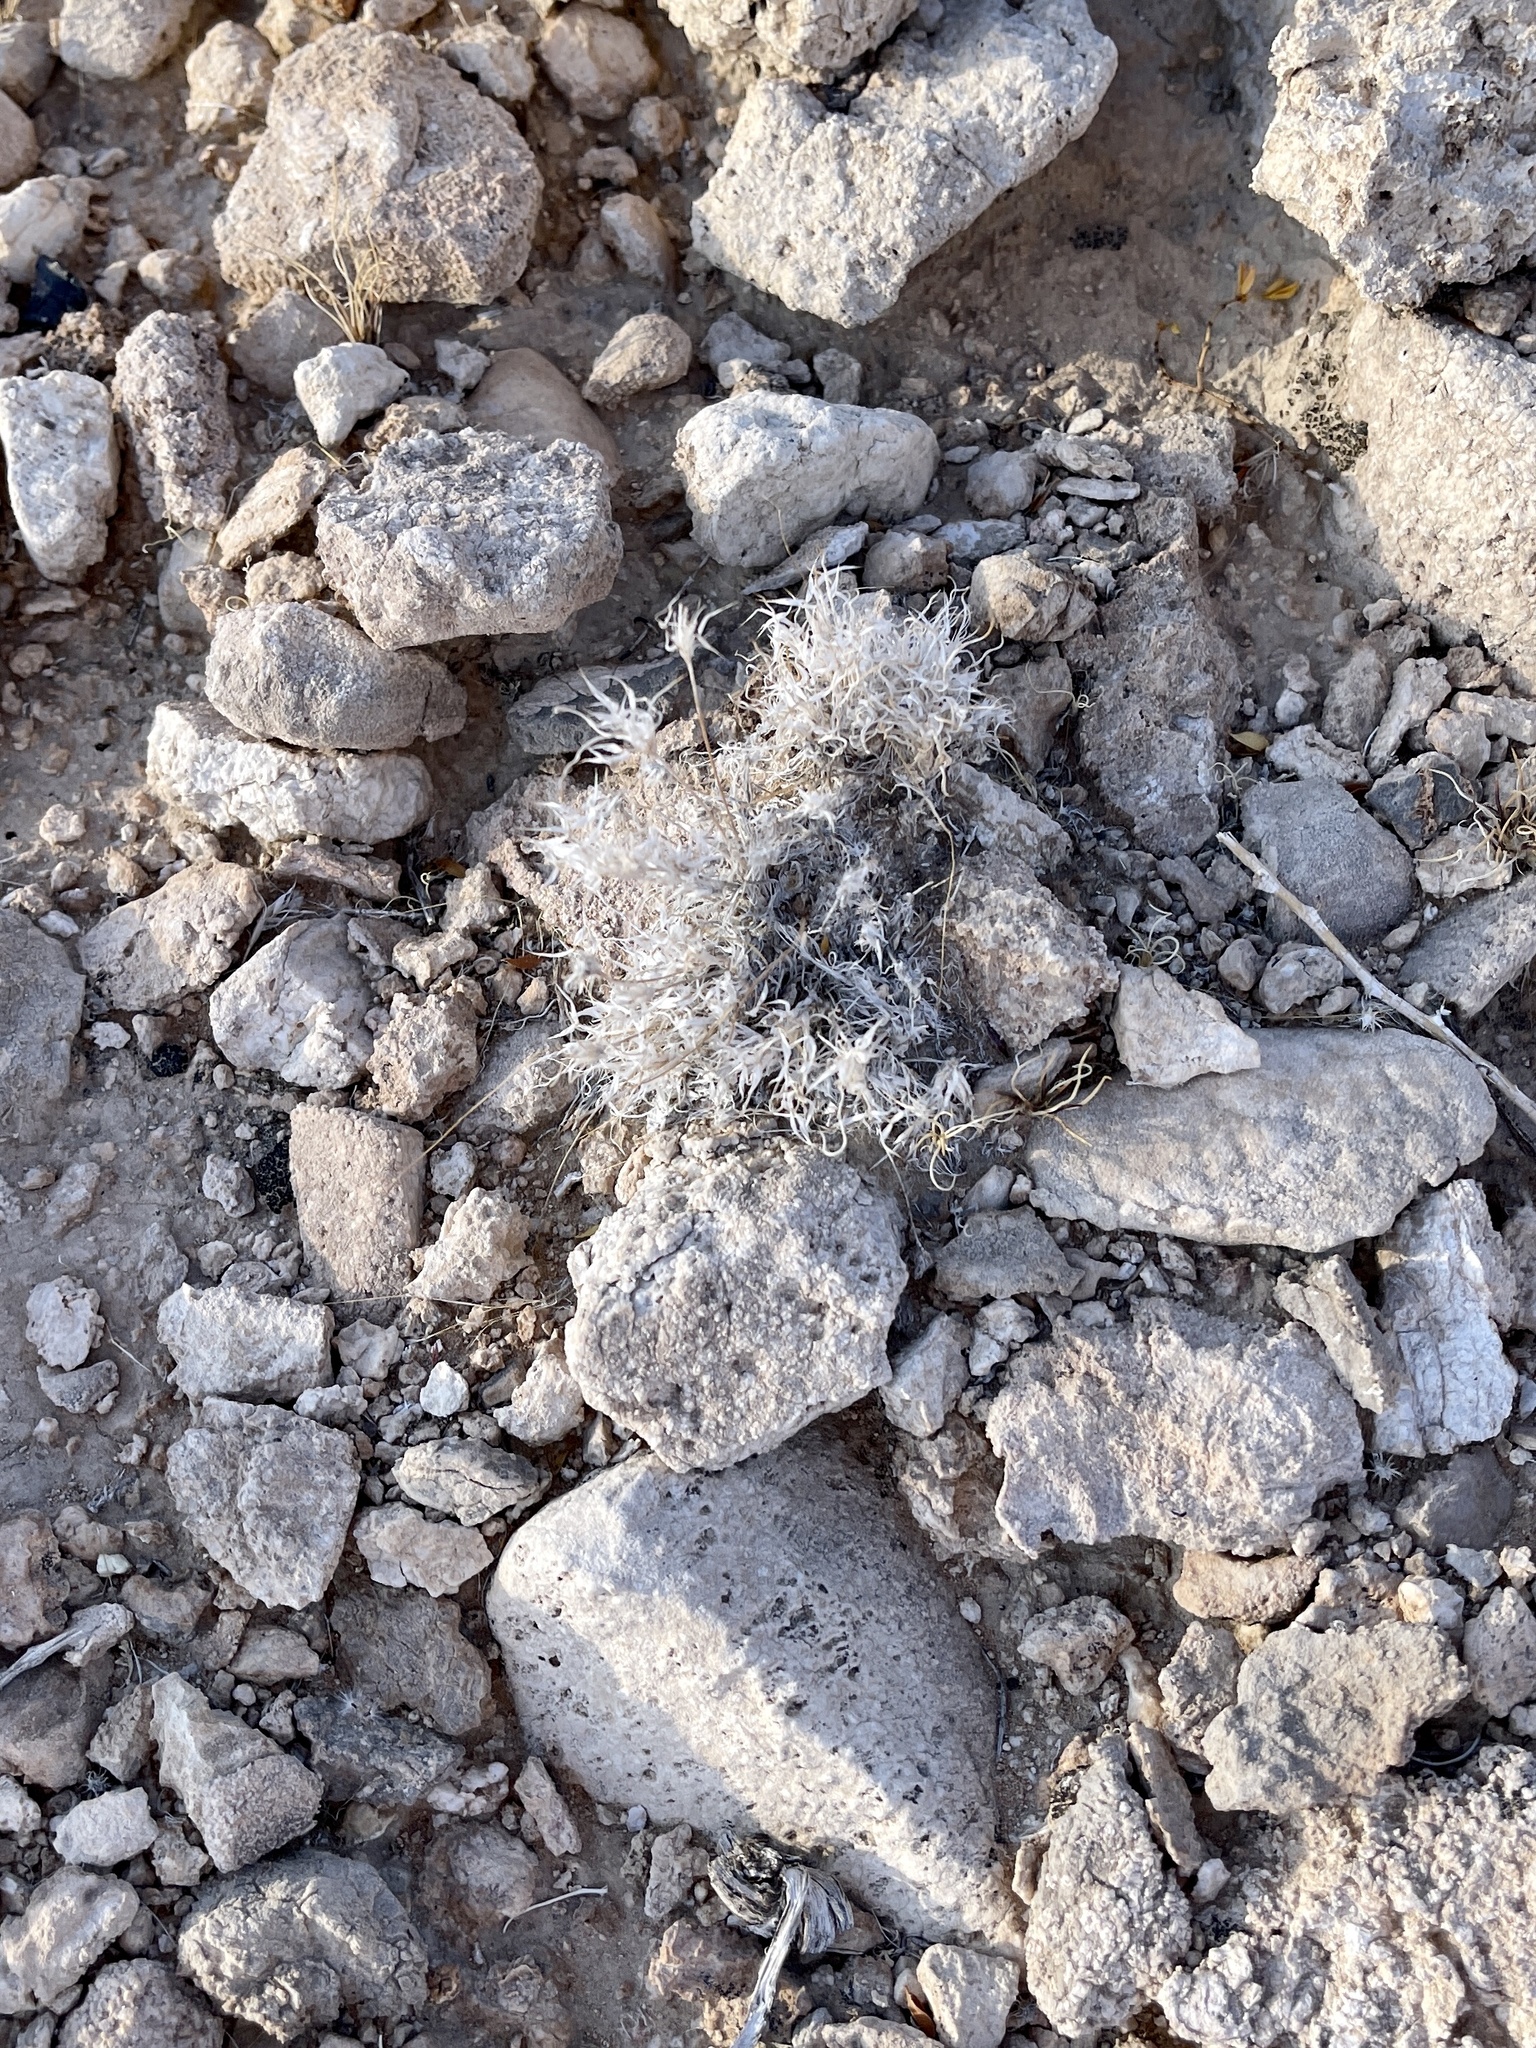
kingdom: Plantae
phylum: Tracheophyta
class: Liliopsida
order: Poales
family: Poaceae
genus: Dasyochloa
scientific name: Dasyochloa pulchella
